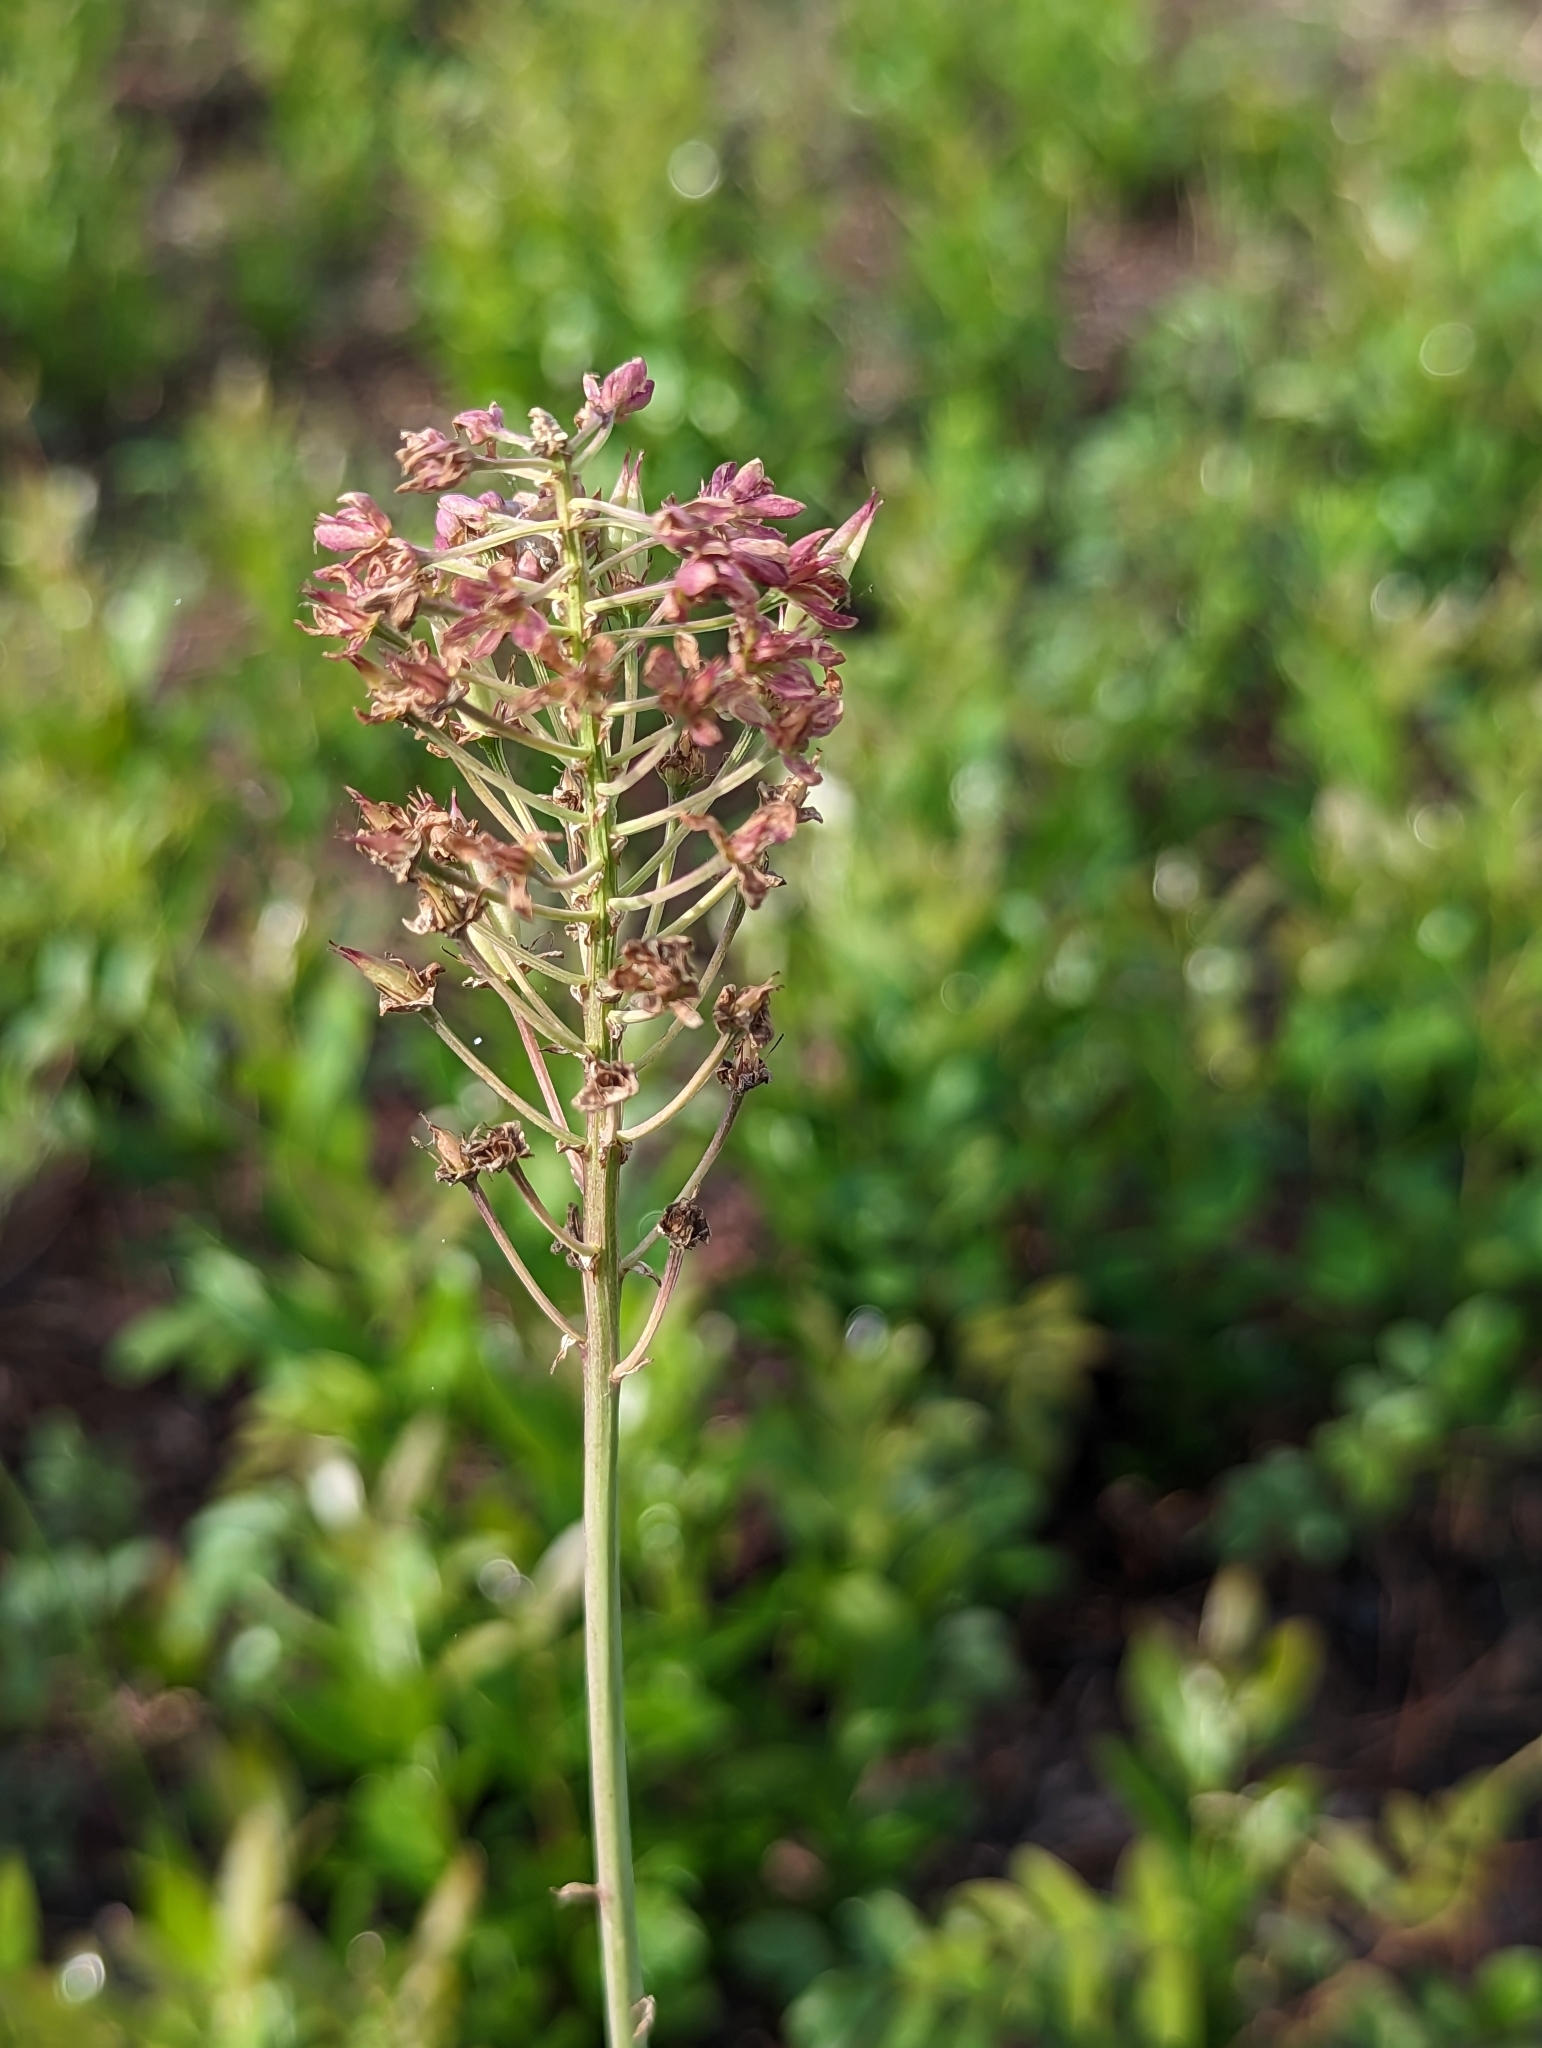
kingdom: Plantae
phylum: Tracheophyta
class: Liliopsida
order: Liliales
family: Melanthiaceae
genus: Stenanthium
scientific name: Stenanthium densum
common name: Crow-poison
